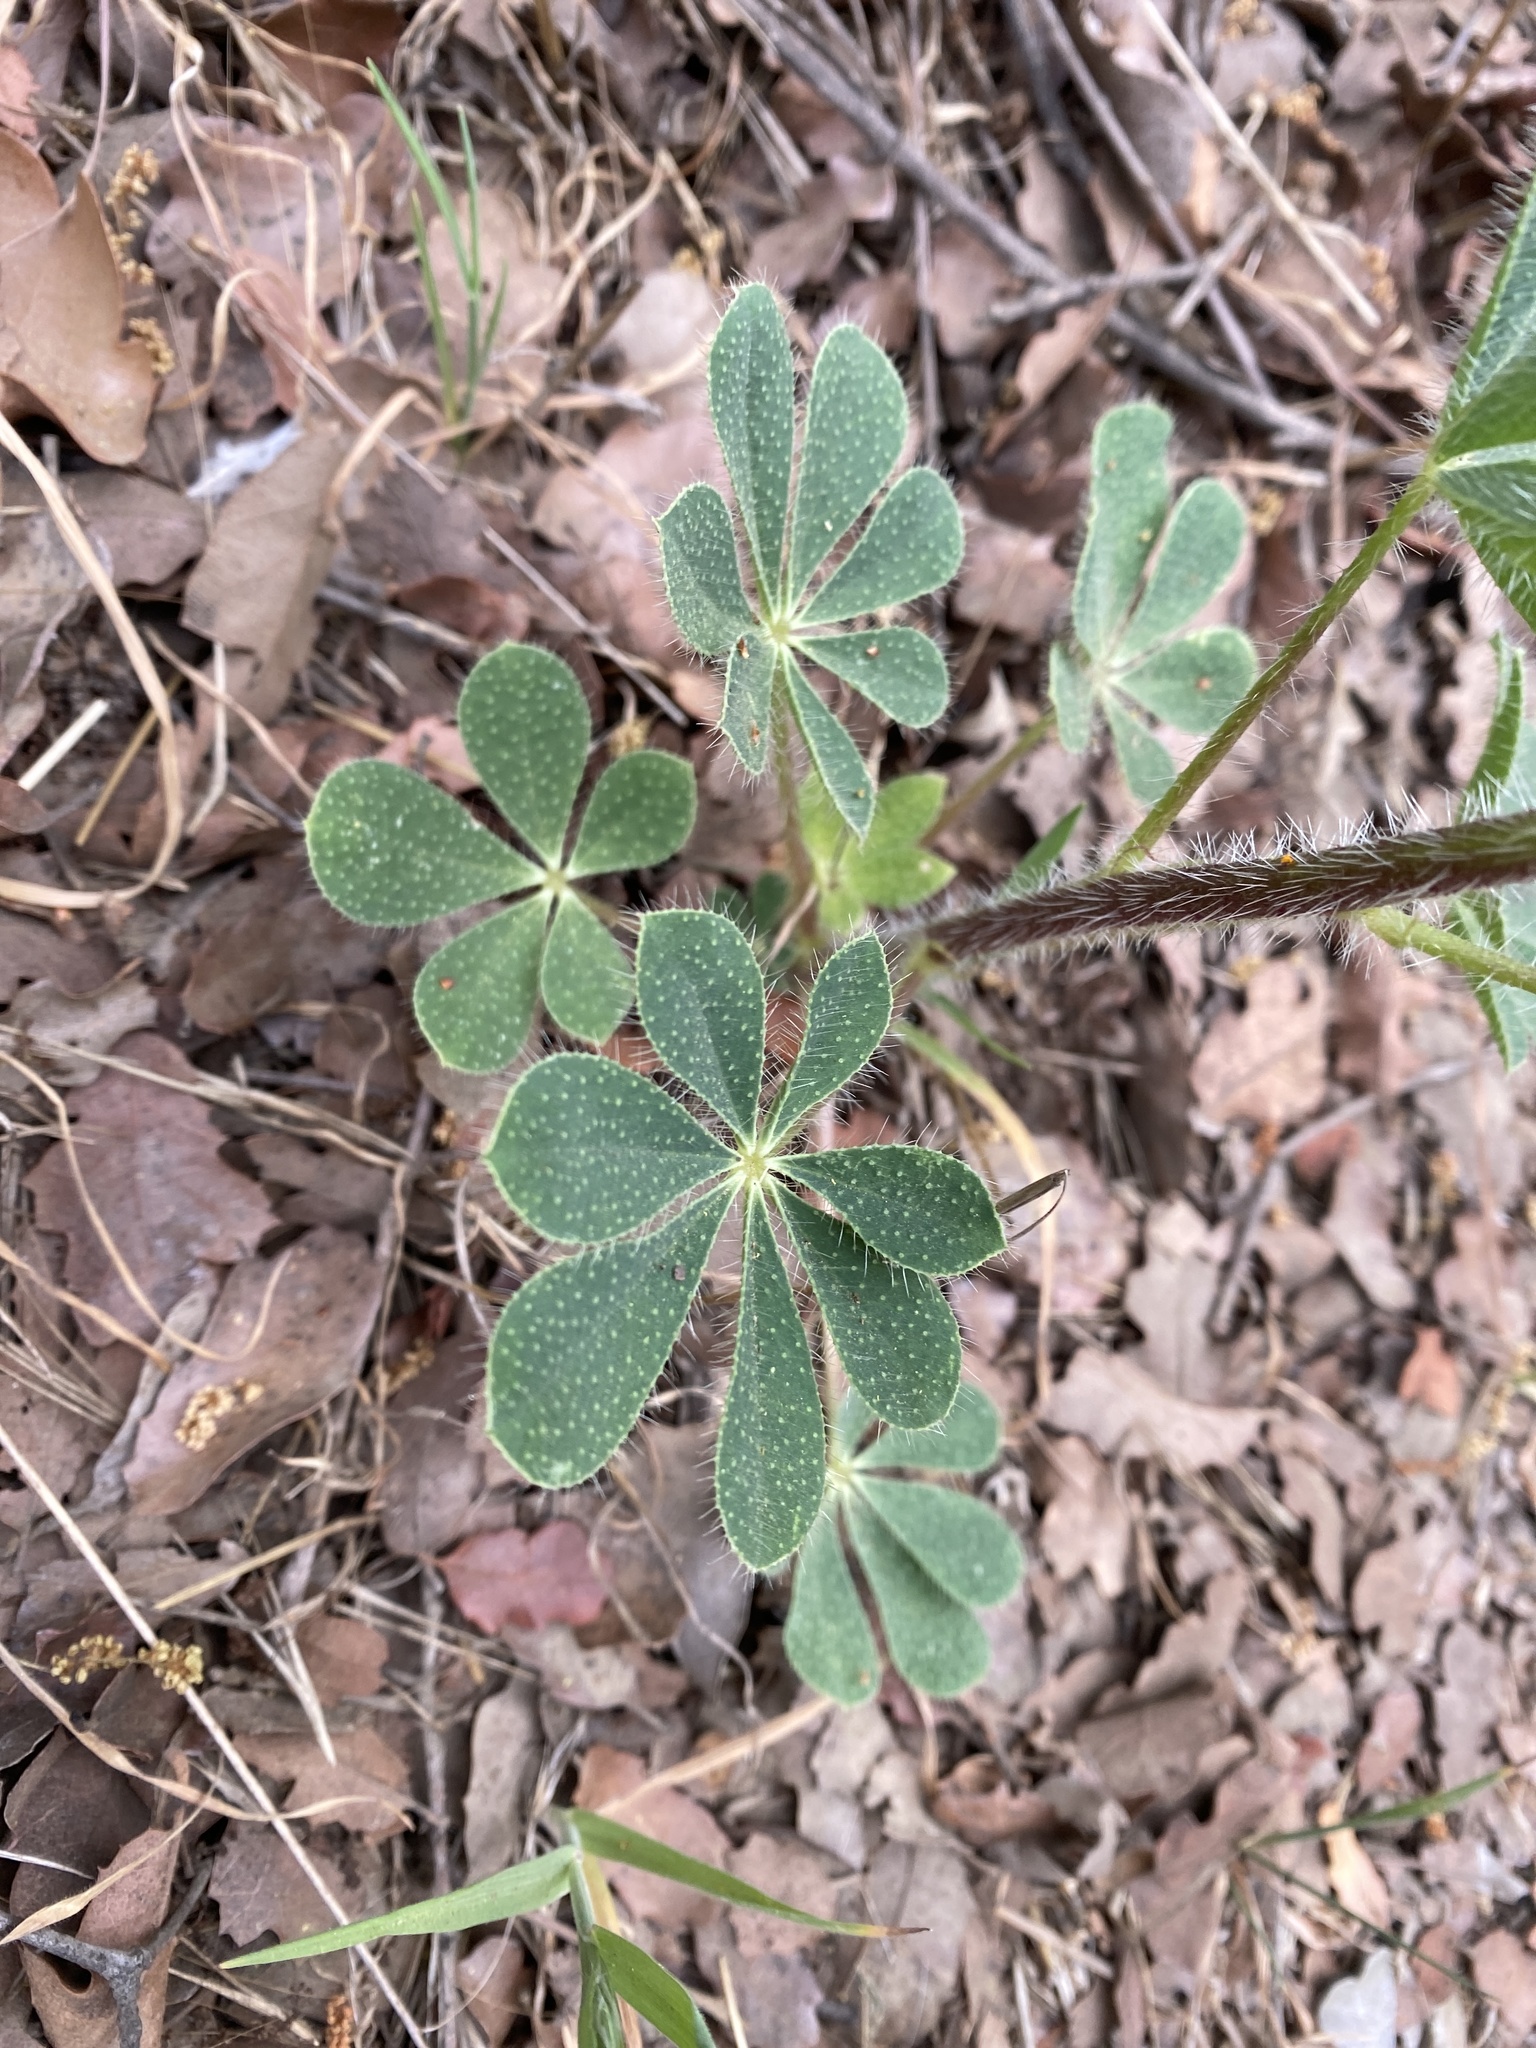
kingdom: Plantae
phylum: Tracheophyta
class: Magnoliopsida
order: Fabales
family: Fabaceae
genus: Lupinus
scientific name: Lupinus hirsutissimus
